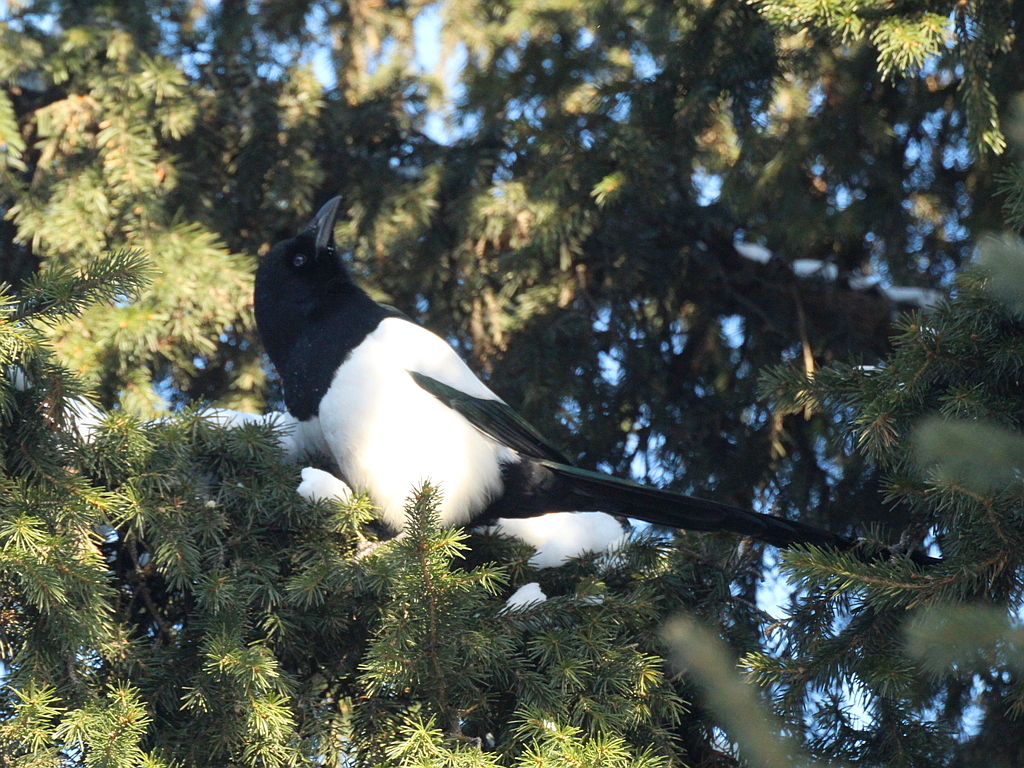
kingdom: Animalia
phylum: Chordata
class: Aves
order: Passeriformes
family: Corvidae
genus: Pica
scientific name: Pica pica
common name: Eurasian magpie
